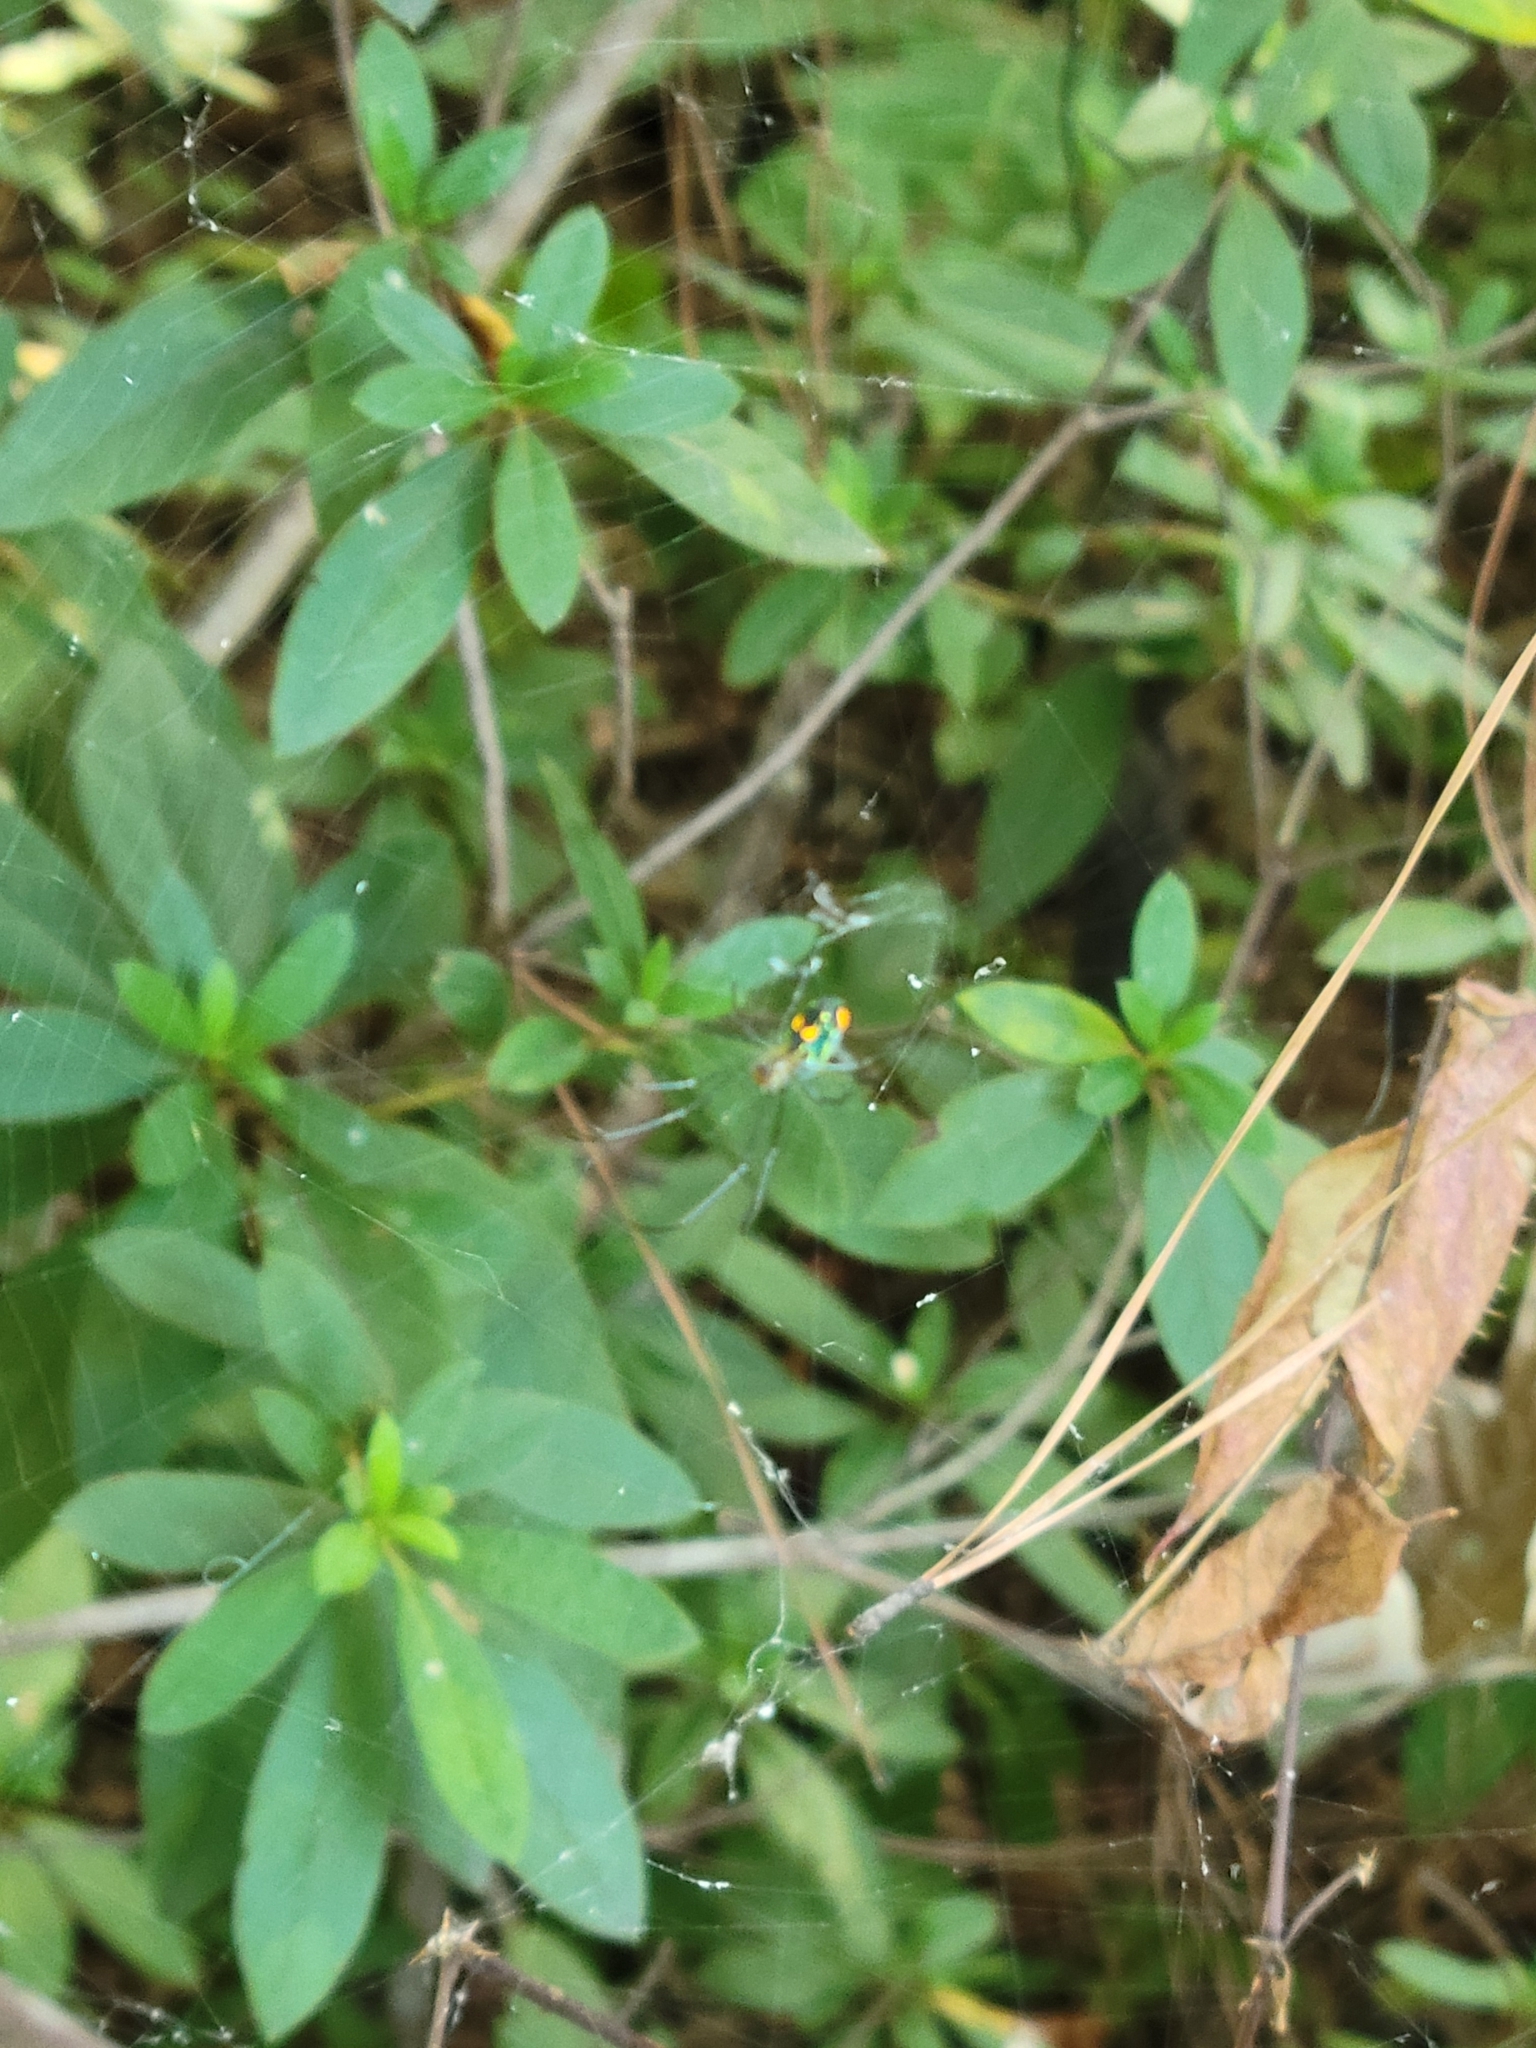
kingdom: Animalia
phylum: Arthropoda
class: Arachnida
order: Araneae
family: Tetragnathidae
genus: Leucauge
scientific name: Leucauge argyrobapta
